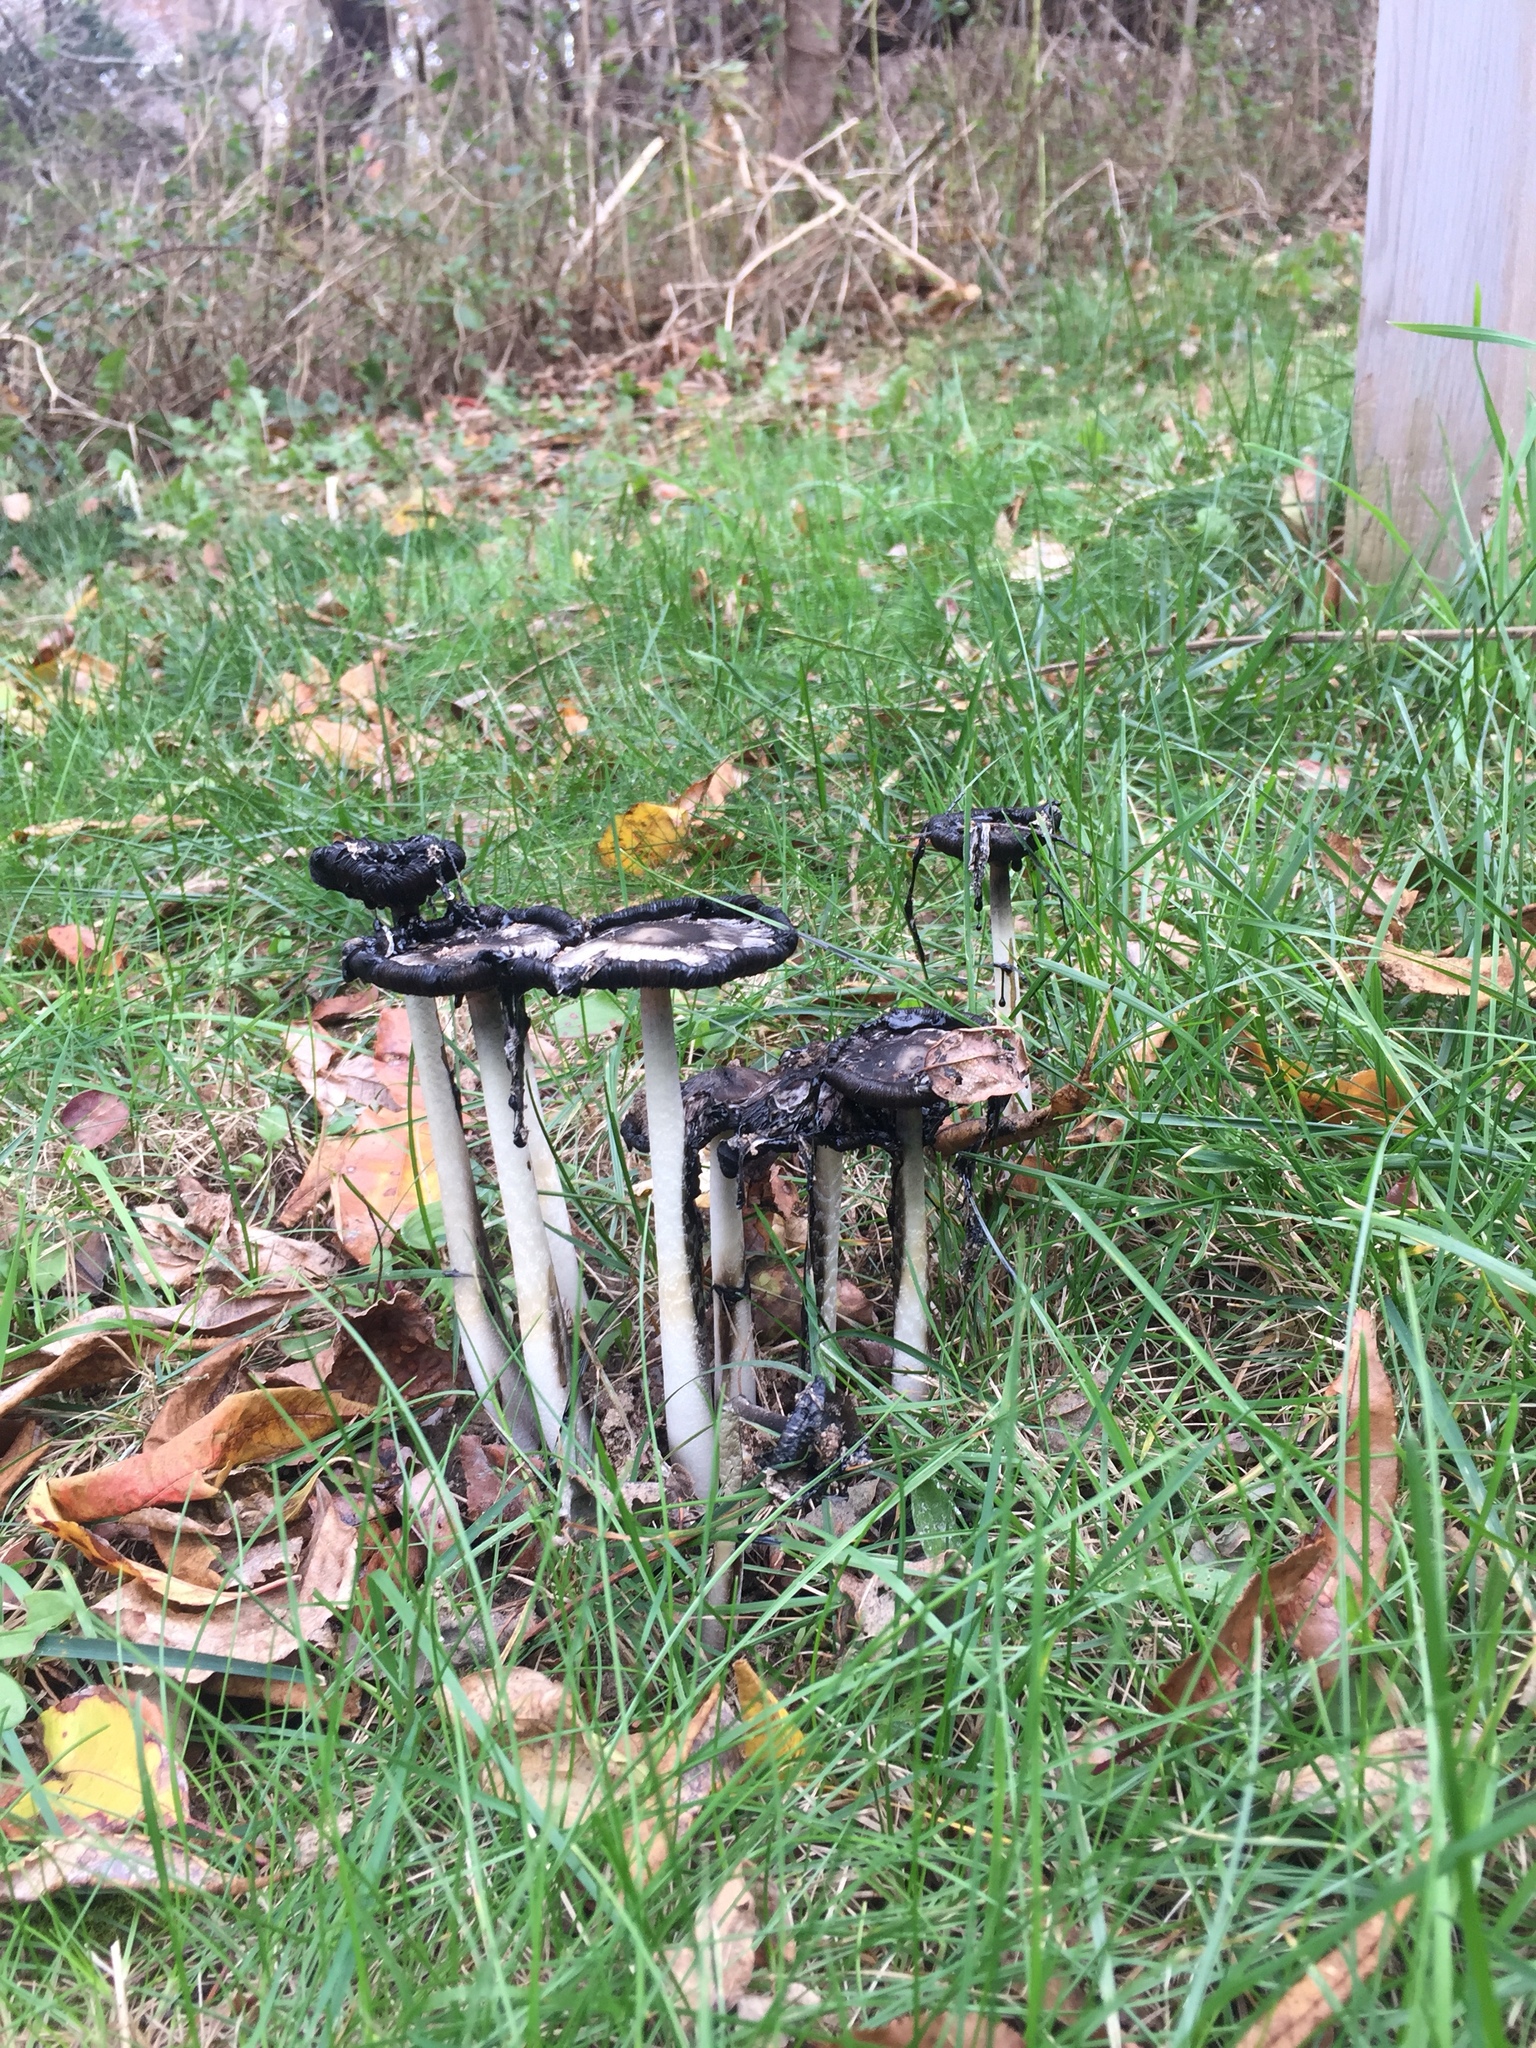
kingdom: Fungi
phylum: Basidiomycota
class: Agaricomycetes
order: Agaricales
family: Agaricaceae
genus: Coprinus
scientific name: Coprinus comatus
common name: Lawyer's wig
